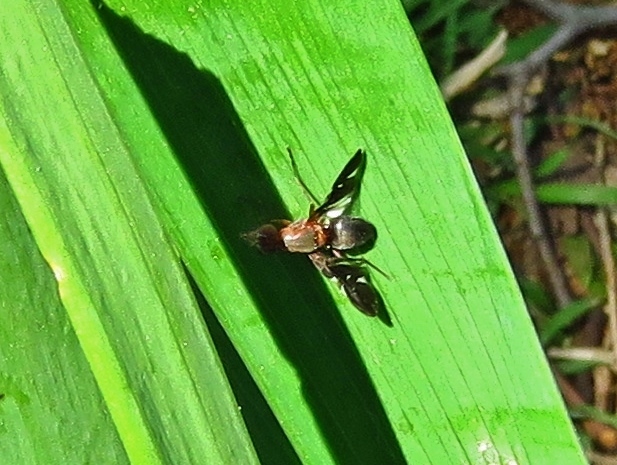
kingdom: Animalia
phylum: Arthropoda
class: Insecta
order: Diptera
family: Ulidiidae
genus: Delphinia
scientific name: Delphinia picta
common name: Common picture-winged fly
